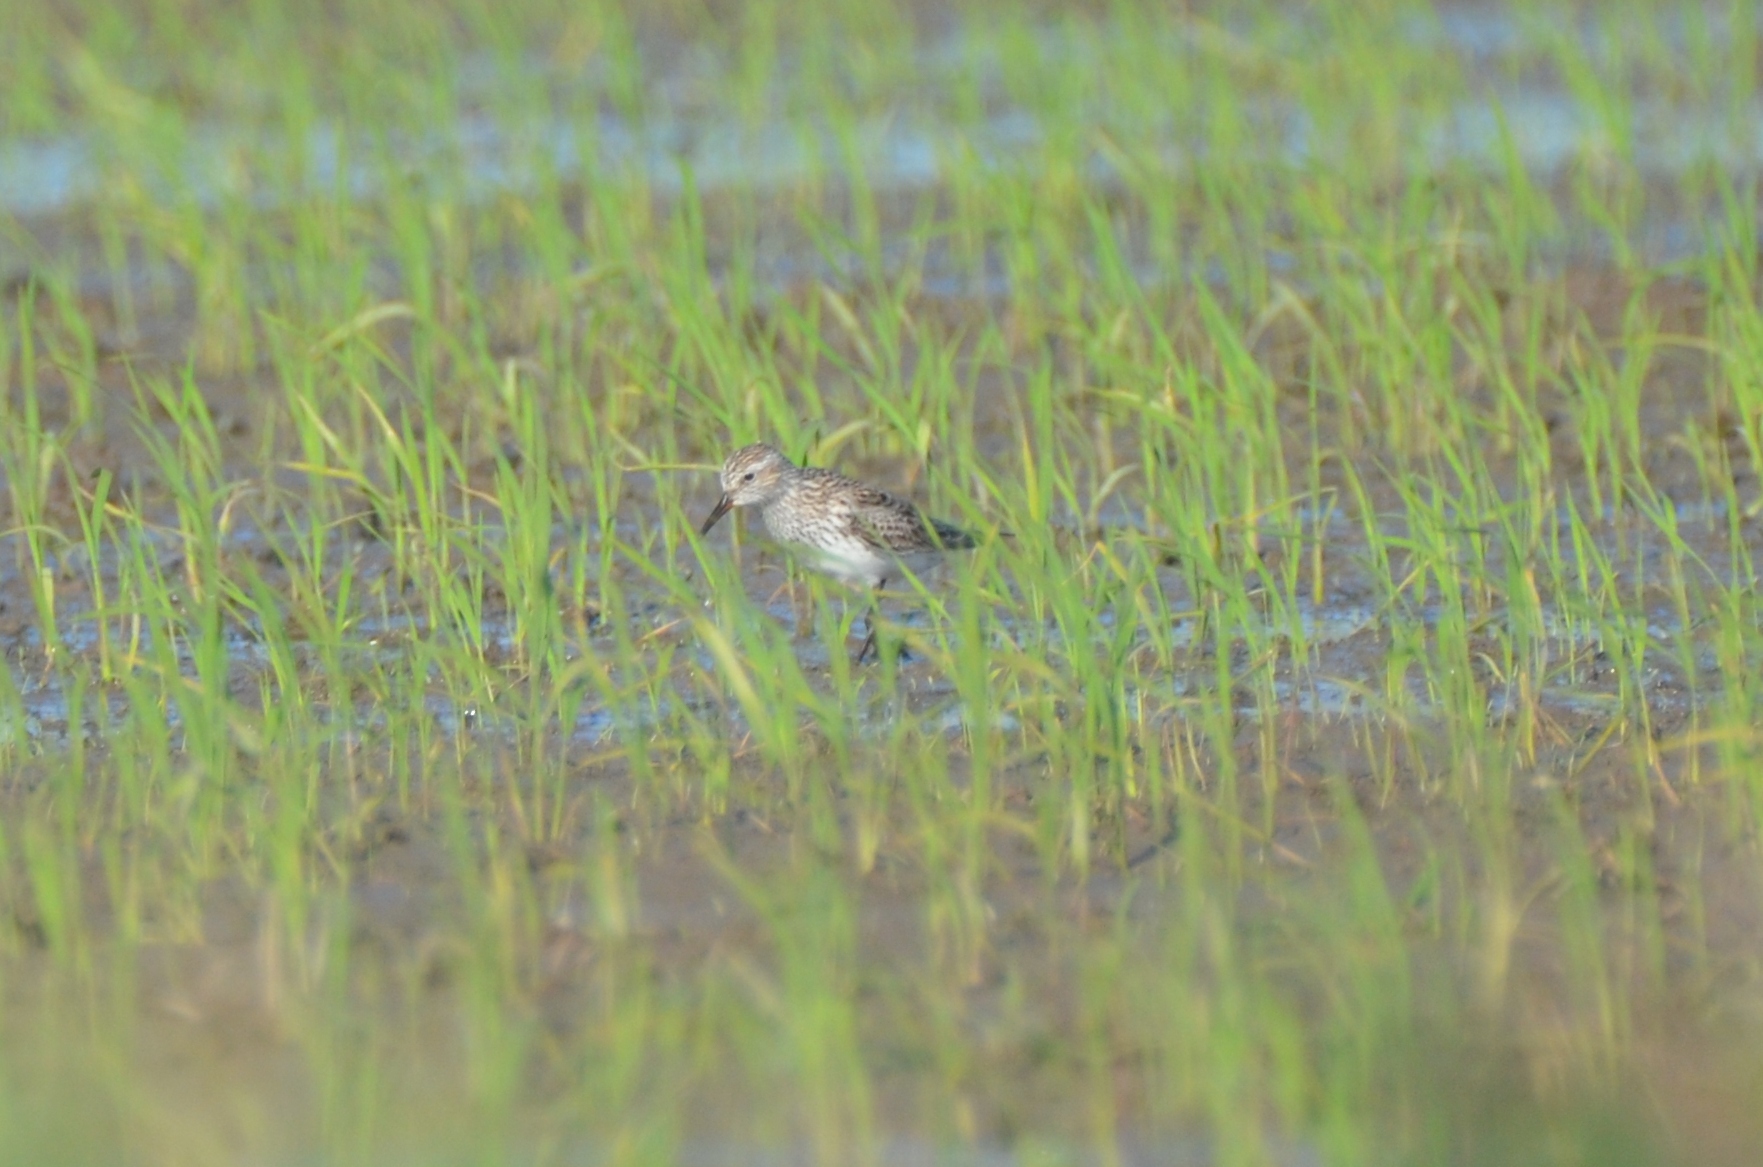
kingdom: Animalia
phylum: Chordata
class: Aves
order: Charadriiformes
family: Scolopacidae
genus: Calidris
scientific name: Calidris fuscicollis
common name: White-rumped sandpiper
